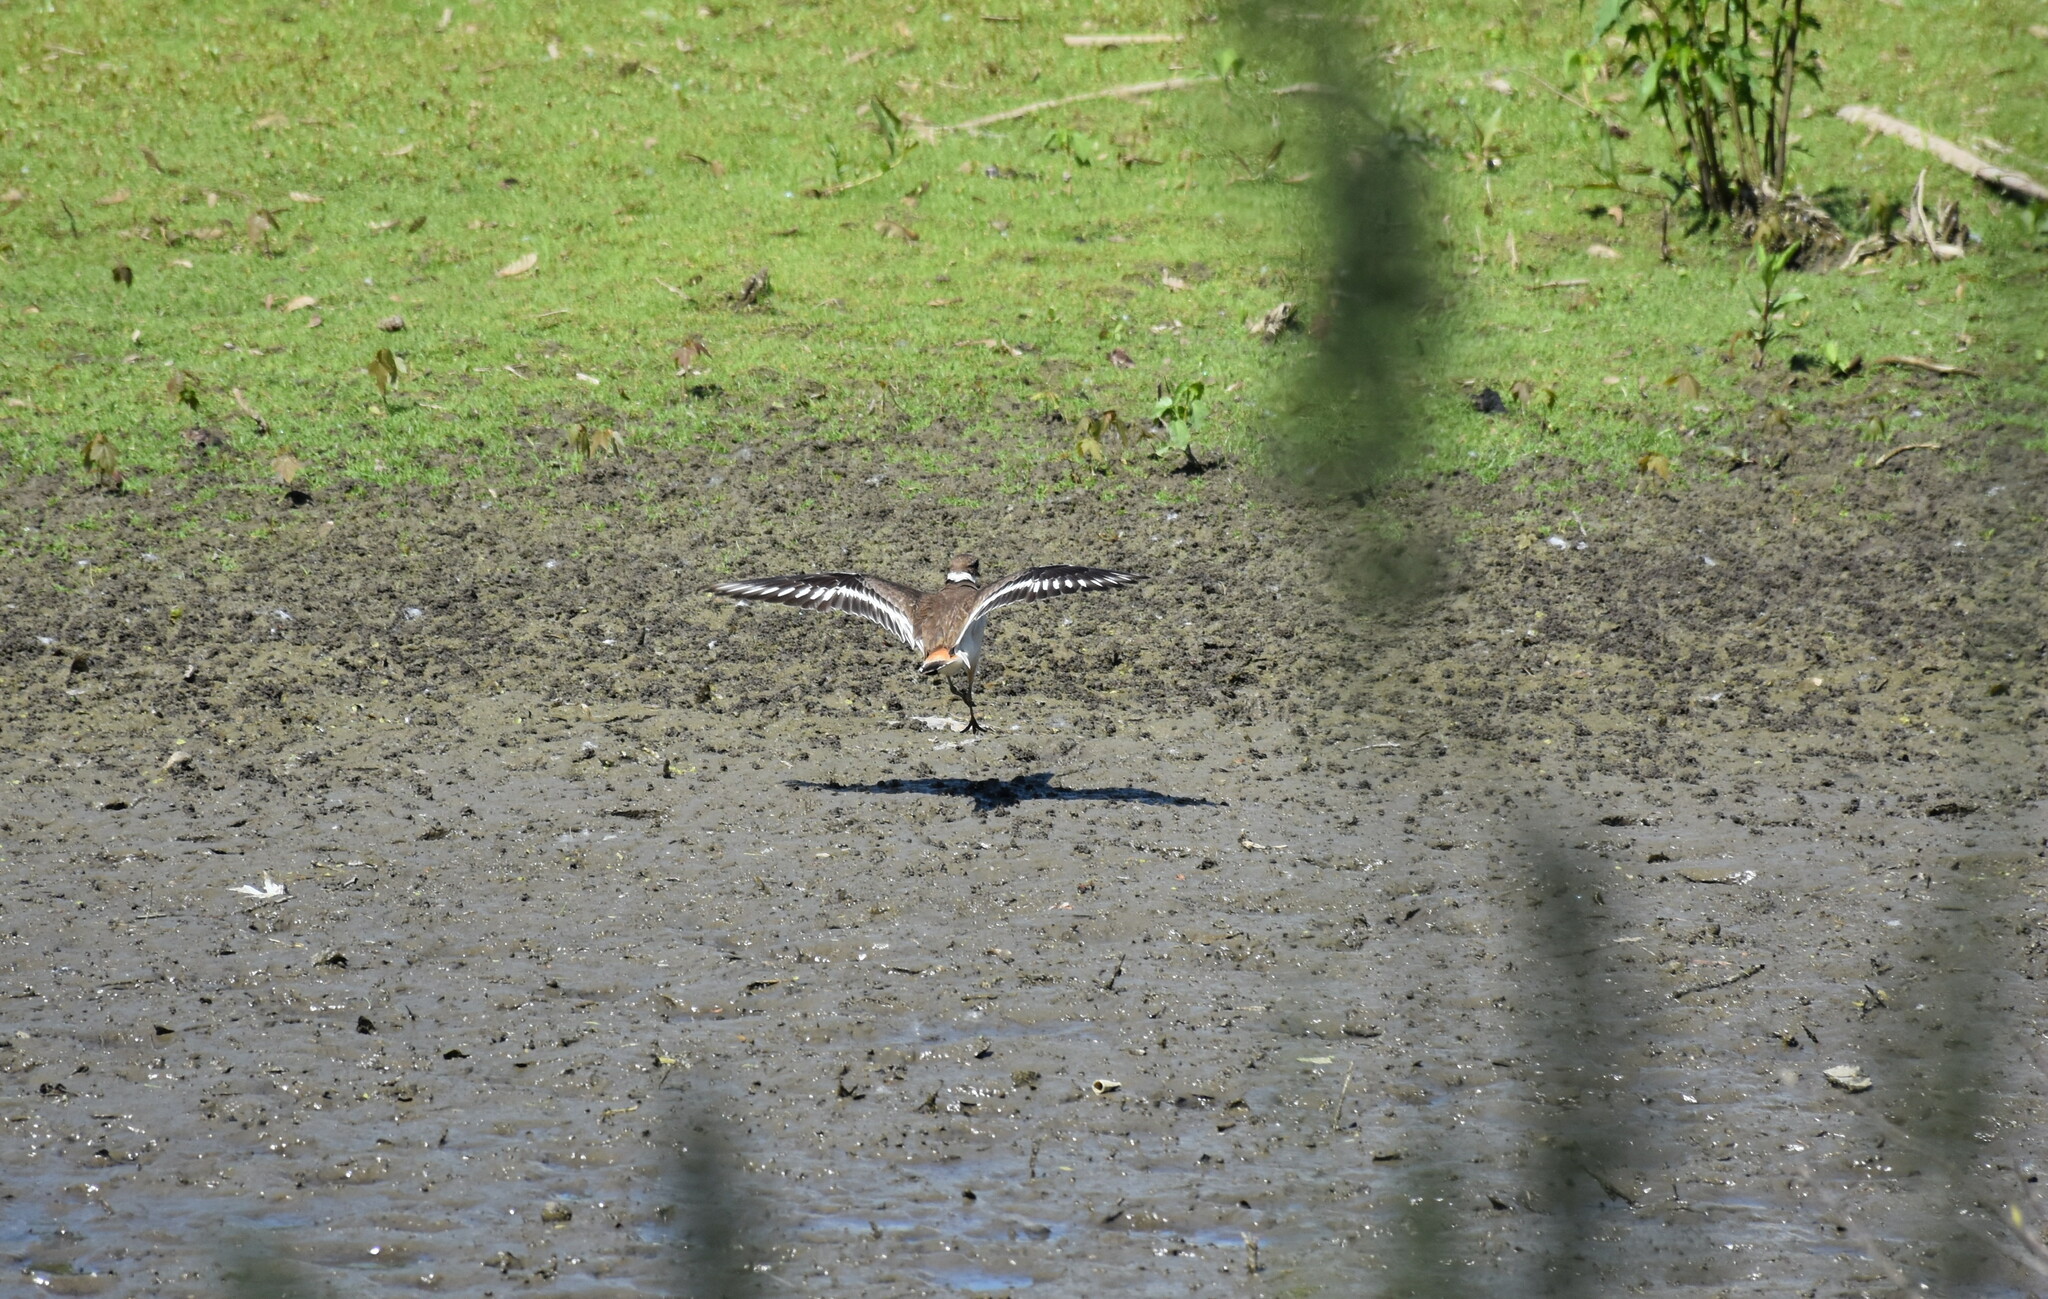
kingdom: Animalia
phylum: Chordata
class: Aves
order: Charadriiformes
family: Charadriidae
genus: Charadrius
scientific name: Charadrius vociferus
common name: Killdeer
